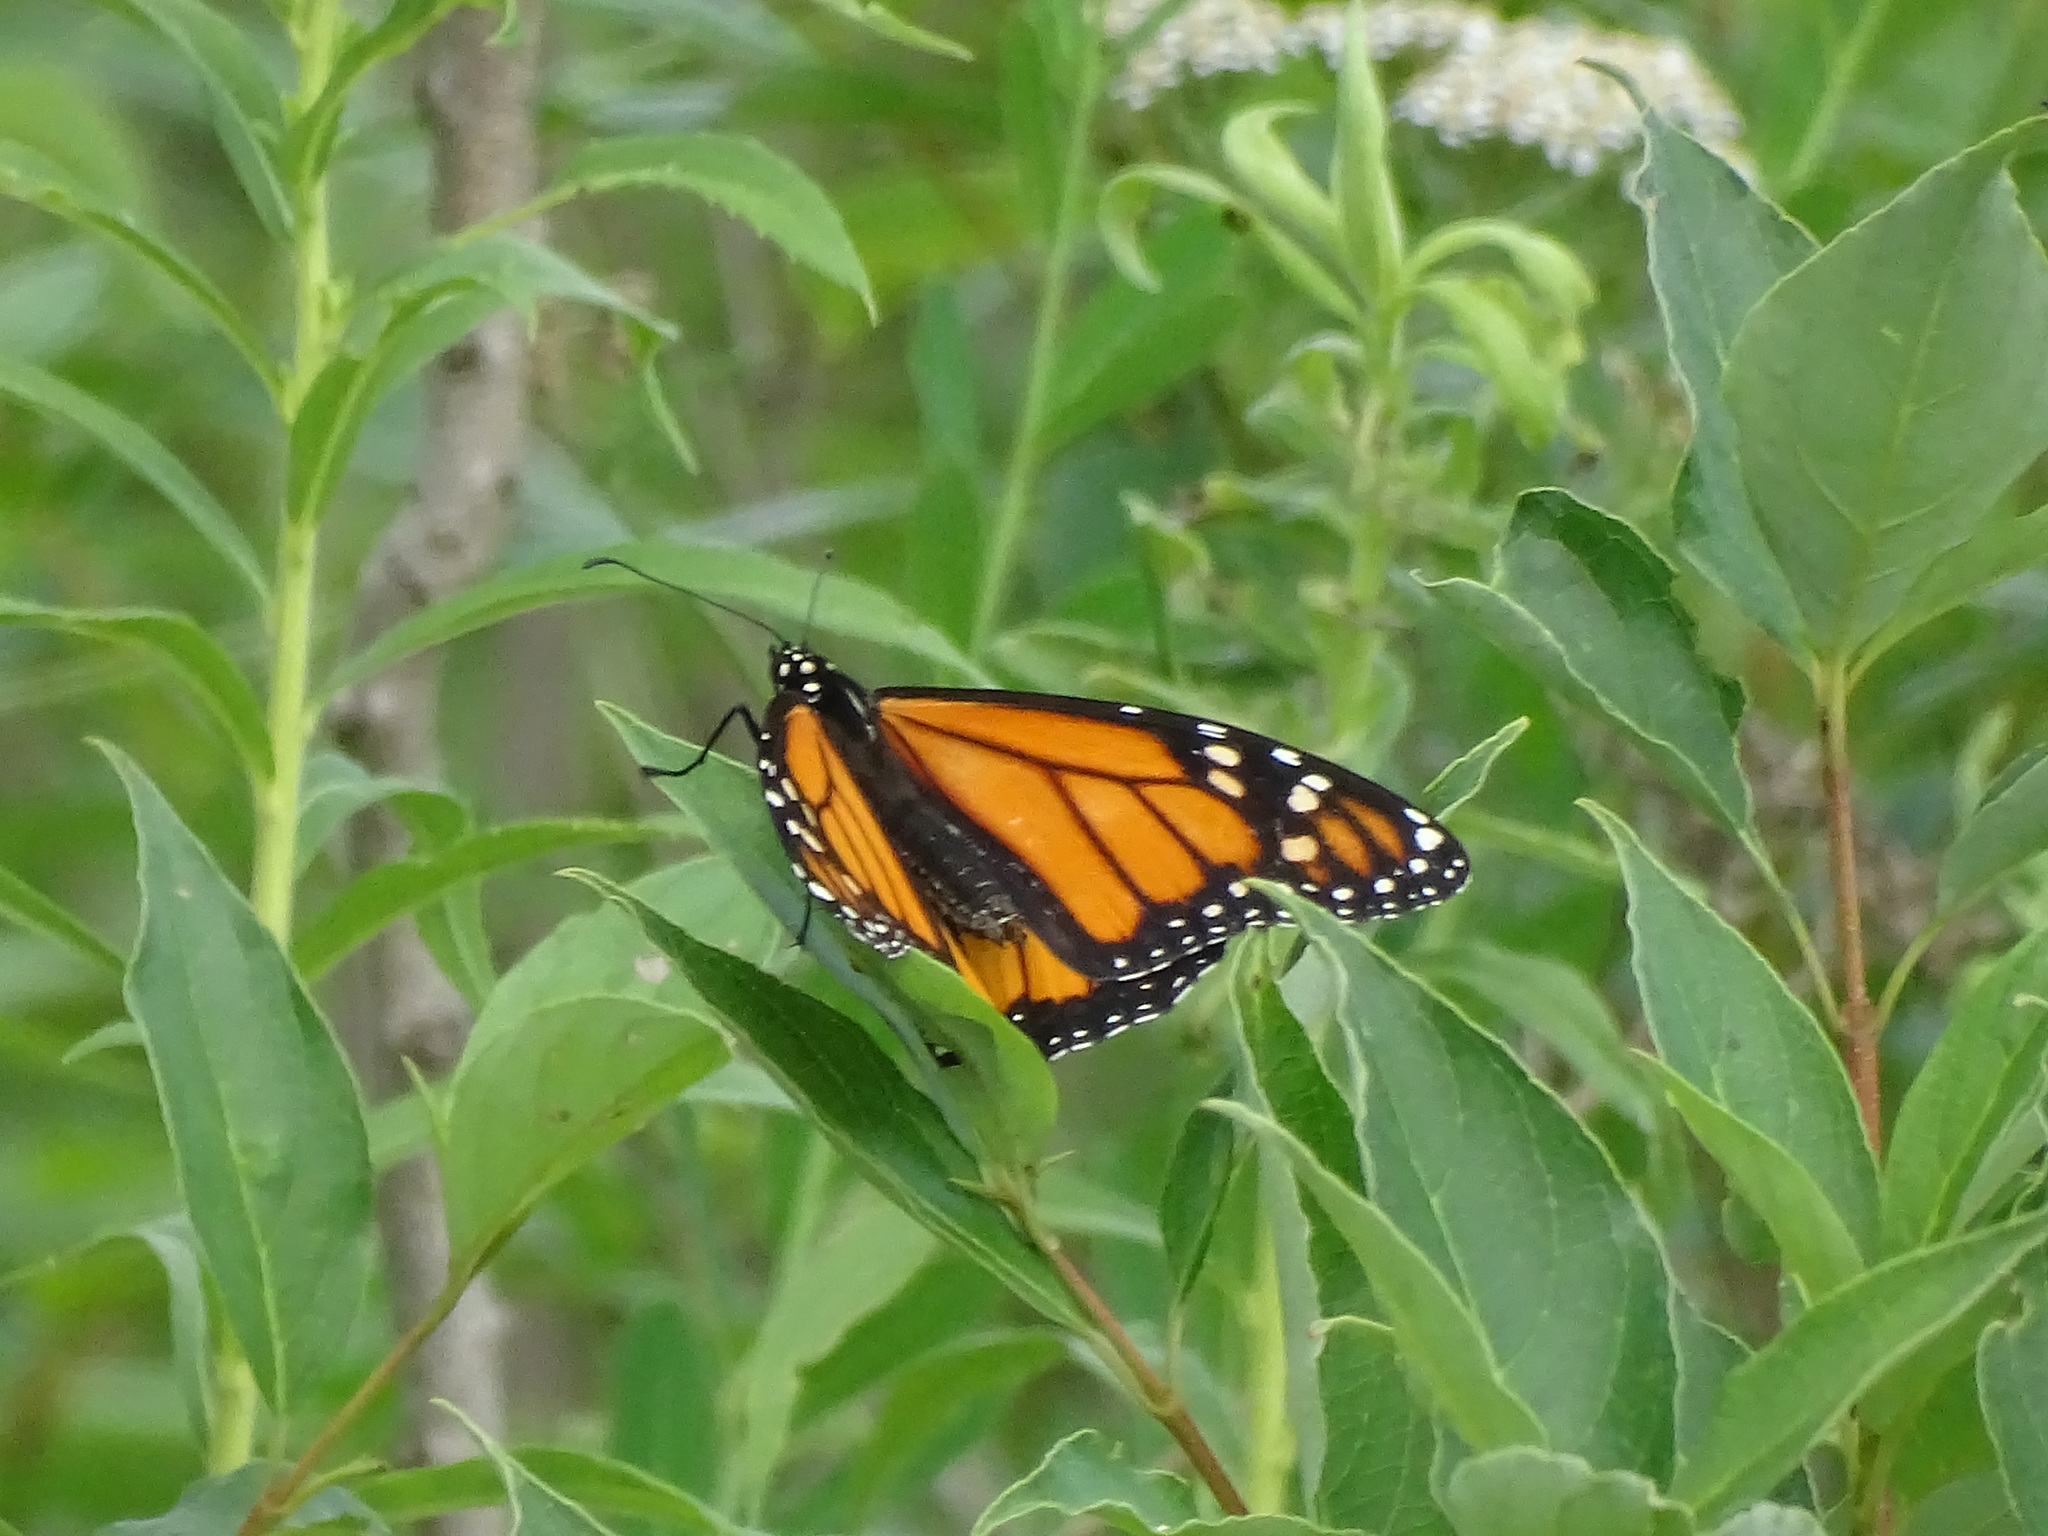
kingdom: Animalia
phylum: Arthropoda
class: Insecta
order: Lepidoptera
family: Nymphalidae
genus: Danaus
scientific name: Danaus plexippus
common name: Monarch
